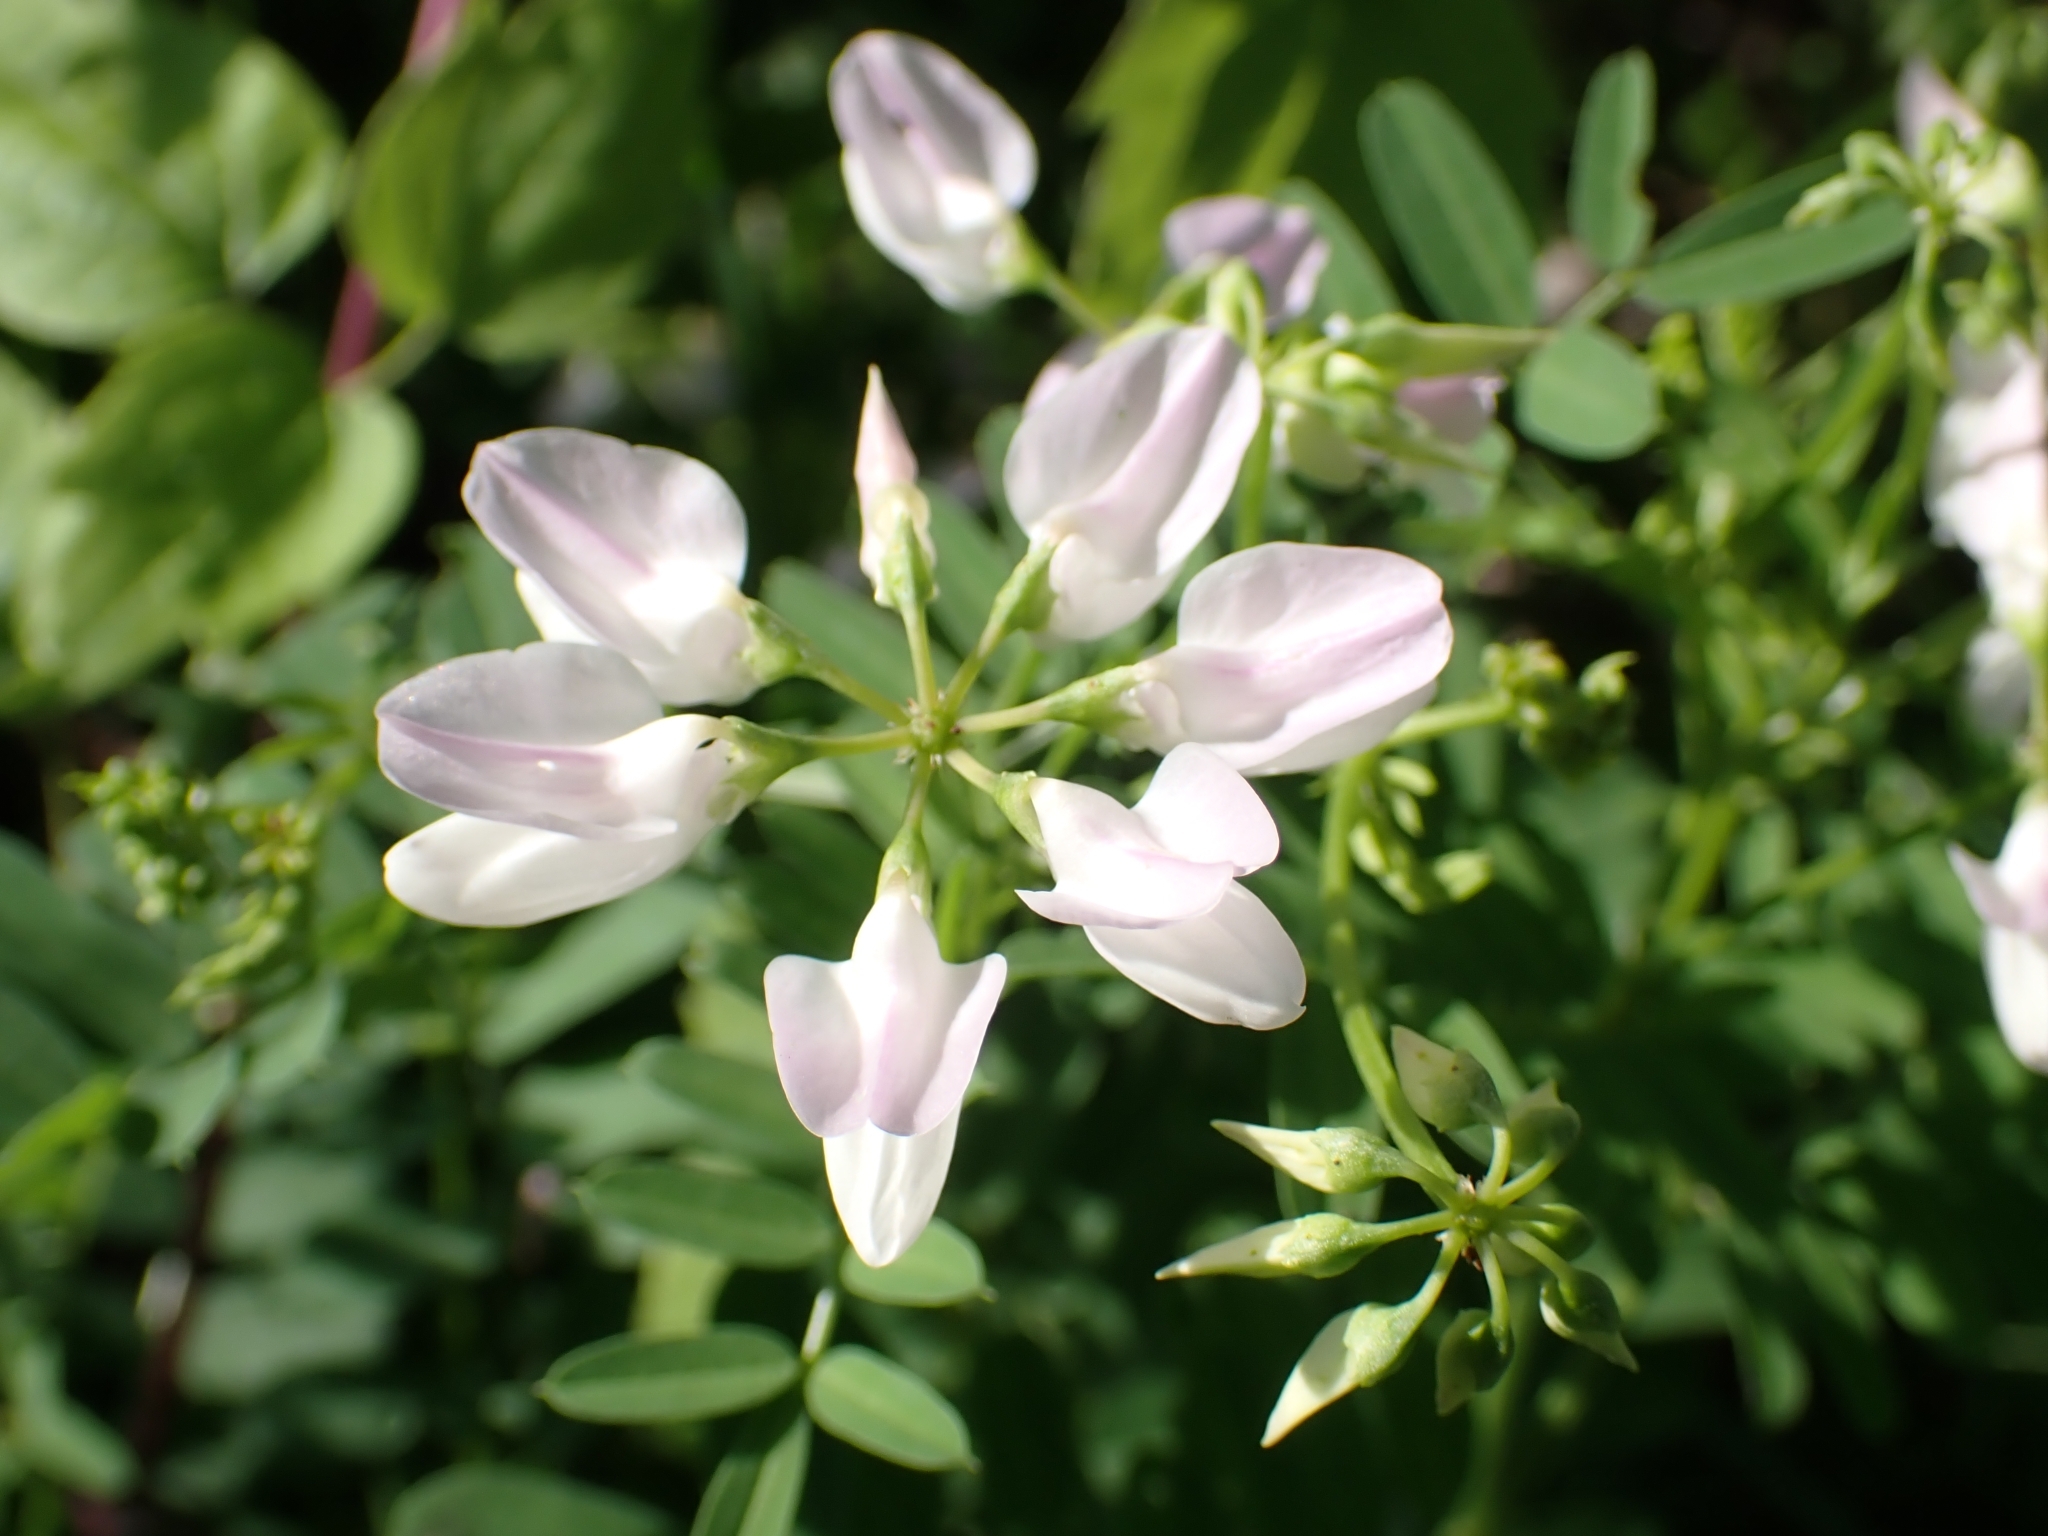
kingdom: Plantae
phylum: Tracheophyta
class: Magnoliopsida
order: Fabales
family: Fabaceae
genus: Coronilla
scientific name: Coronilla varia
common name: Crownvetch
